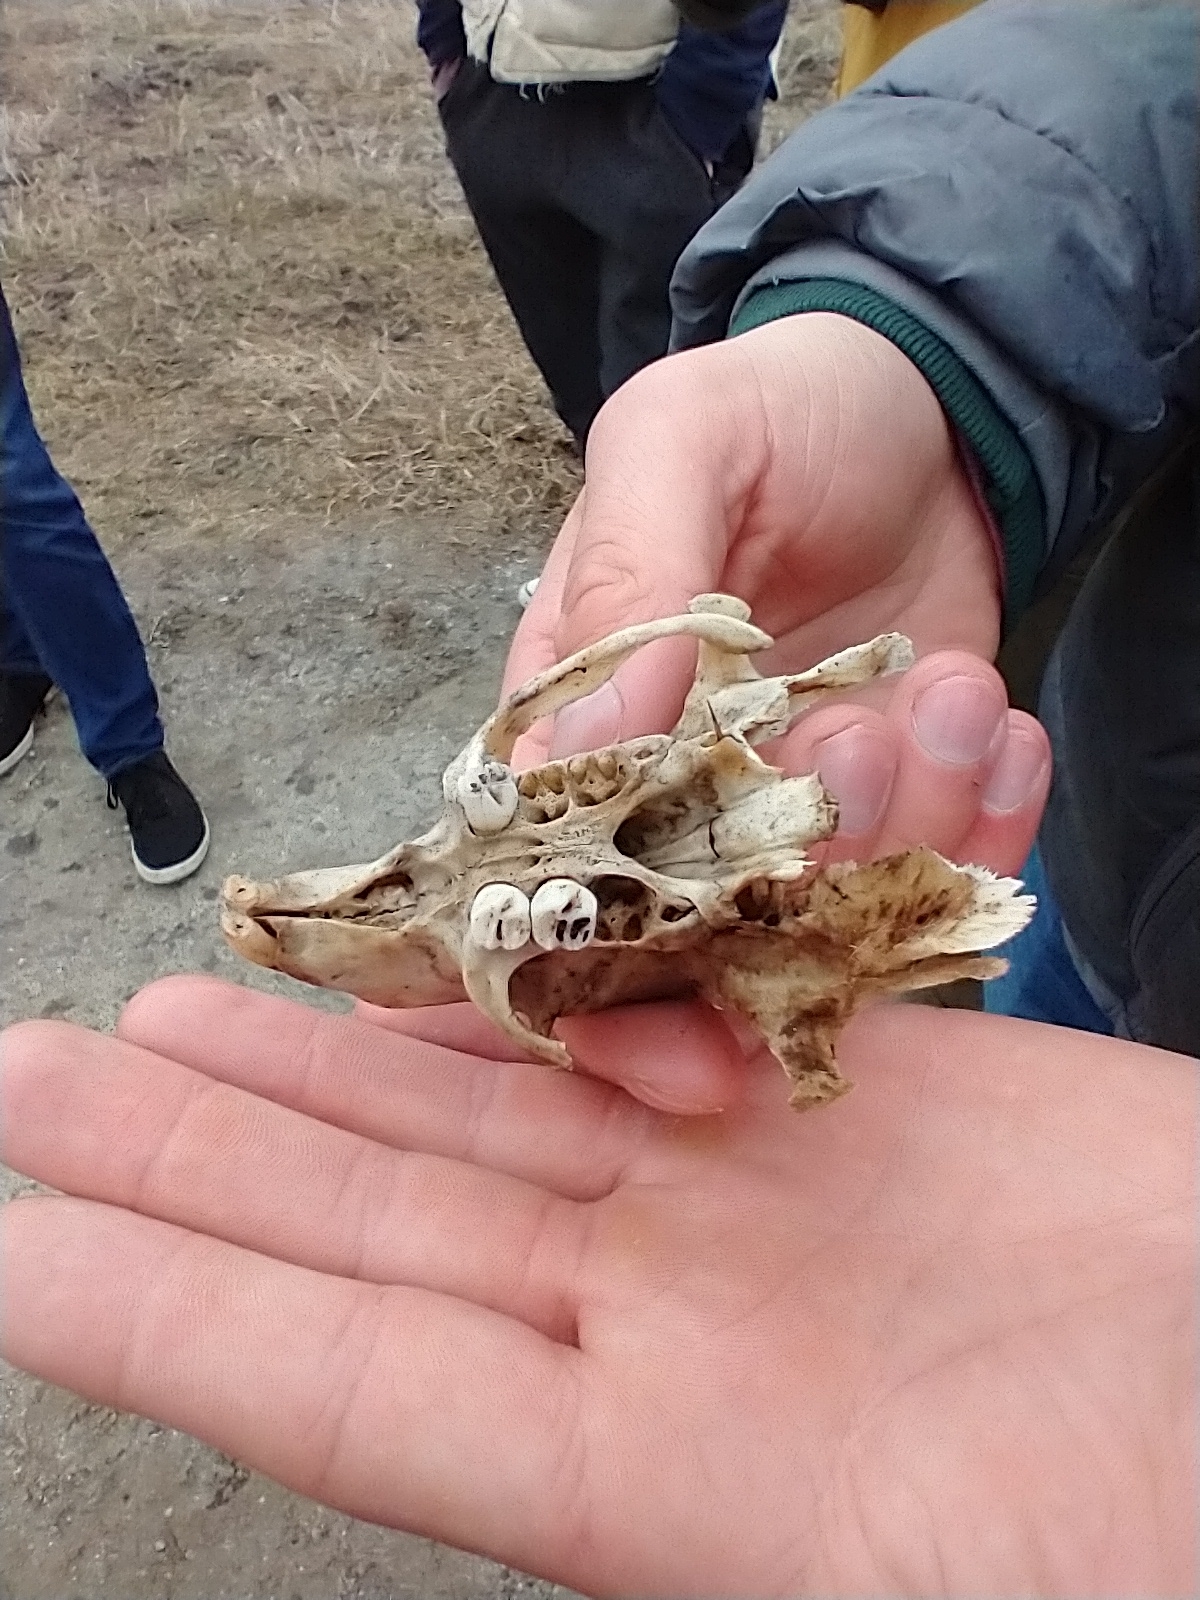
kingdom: Animalia
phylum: Chordata
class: Mammalia
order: Rodentia
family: Erethizontidae
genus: Erethizon
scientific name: Erethizon dorsatus
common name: North american porcupine
